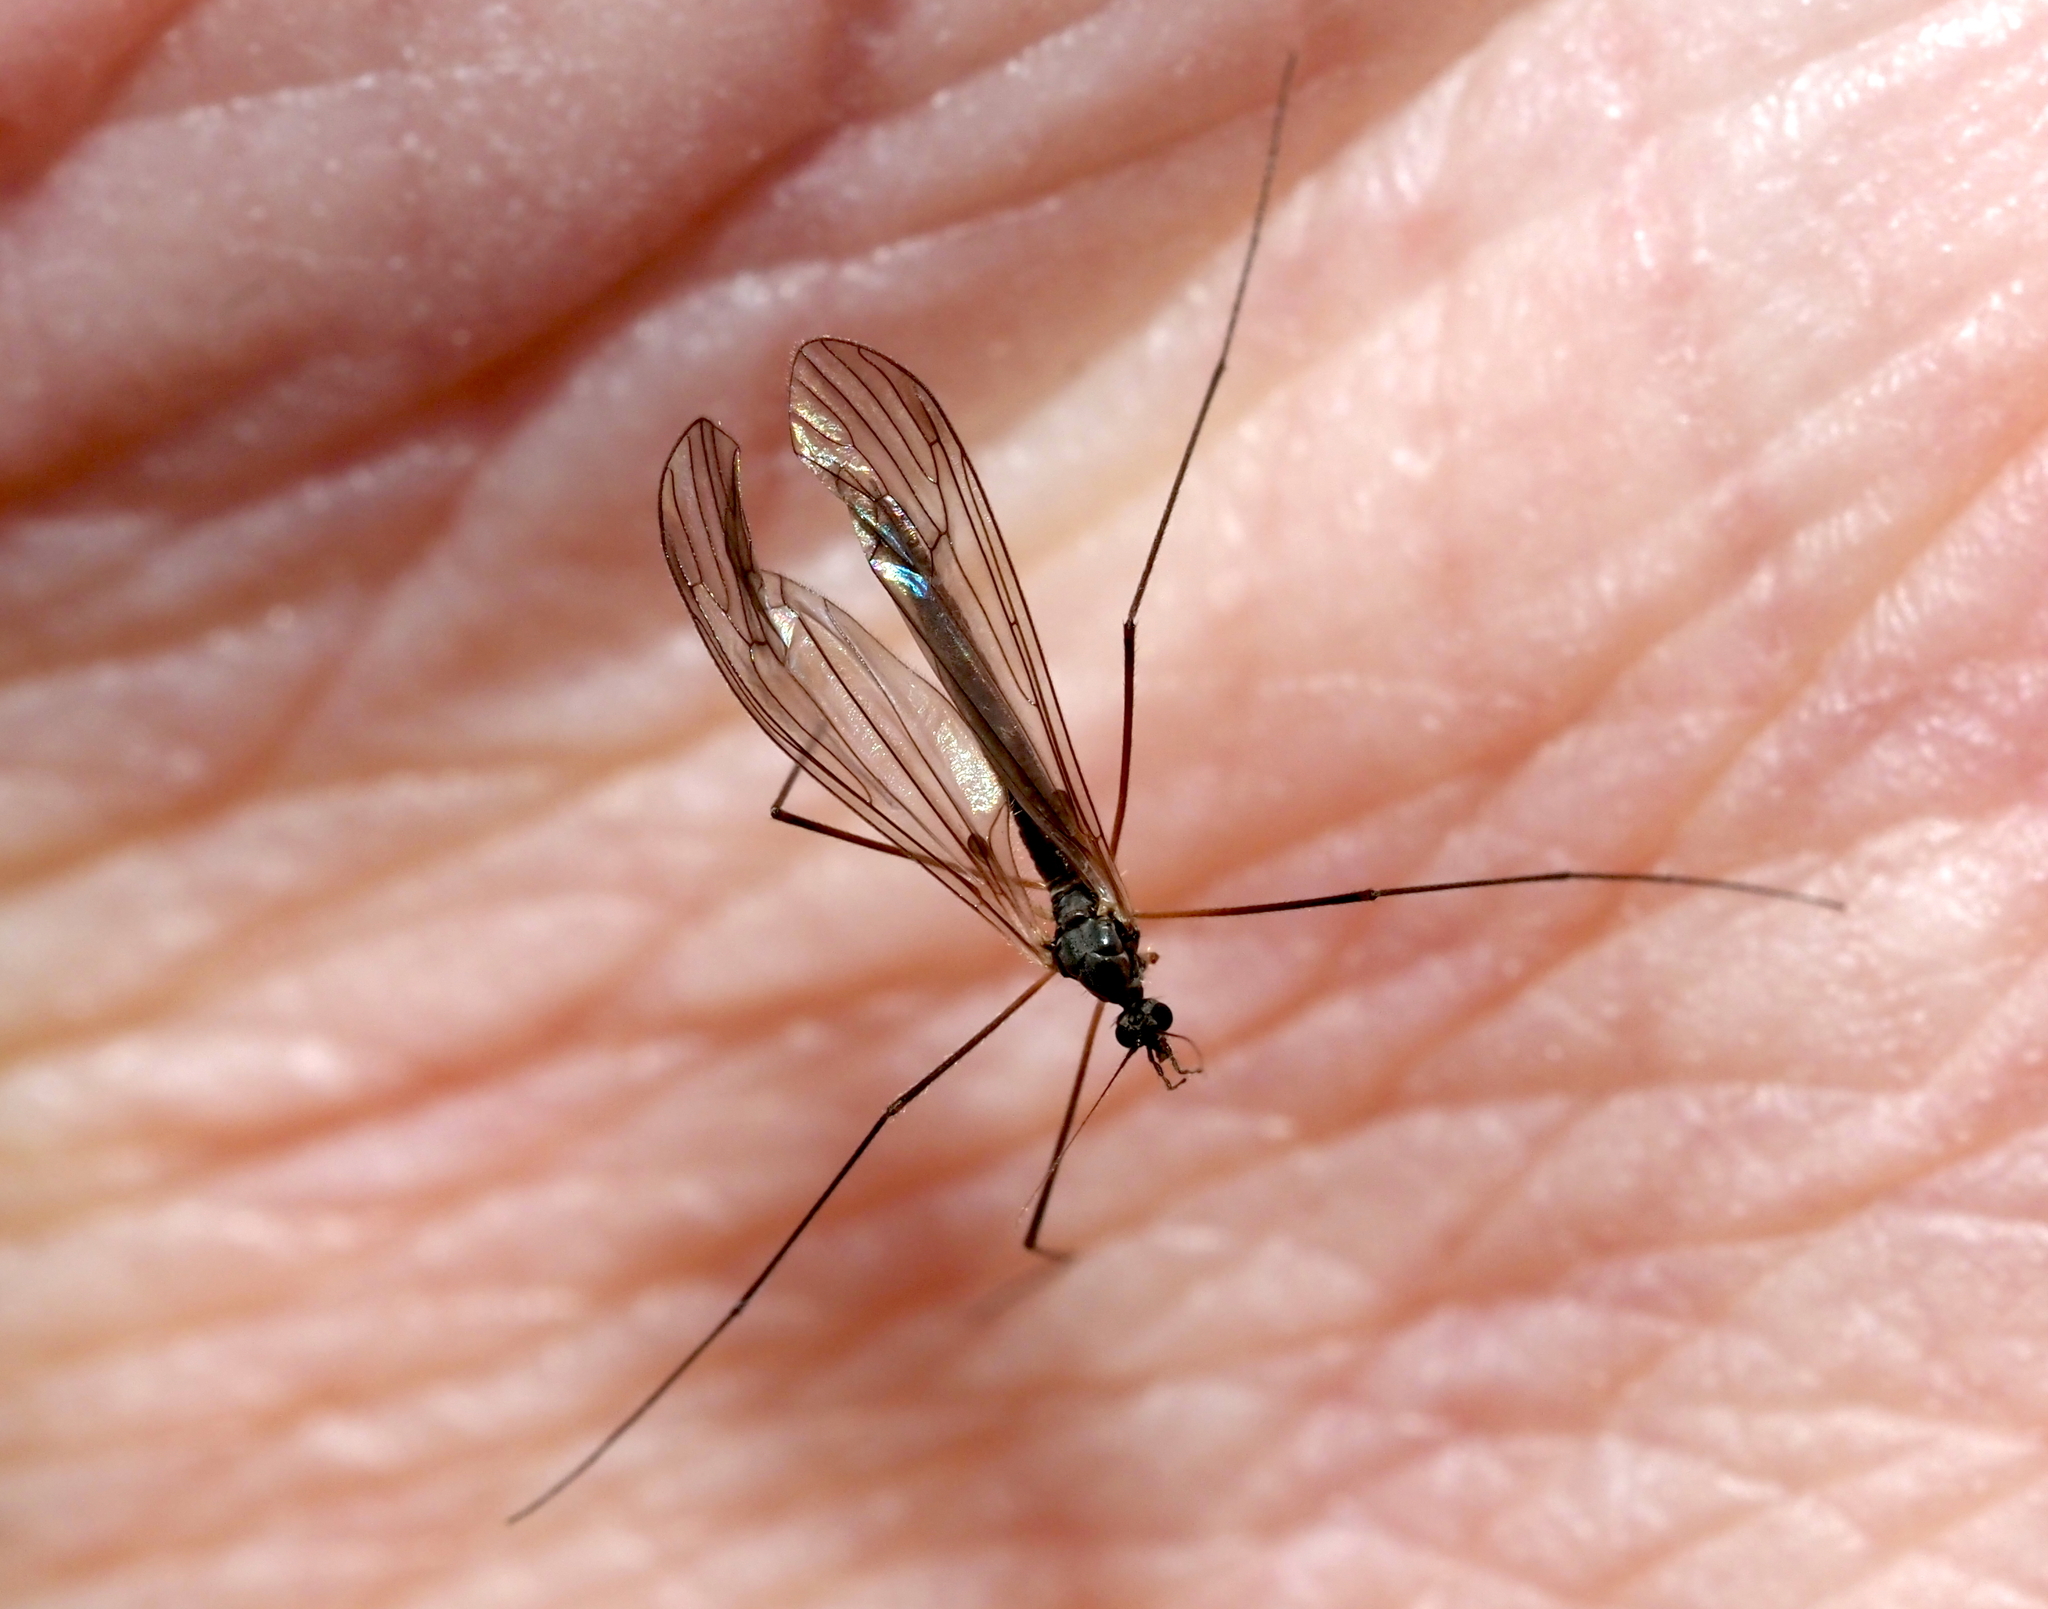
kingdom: Animalia
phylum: Arthropoda
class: Insecta
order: Diptera
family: Trichoceridae
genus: Trichocera
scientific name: Trichocera garretti
